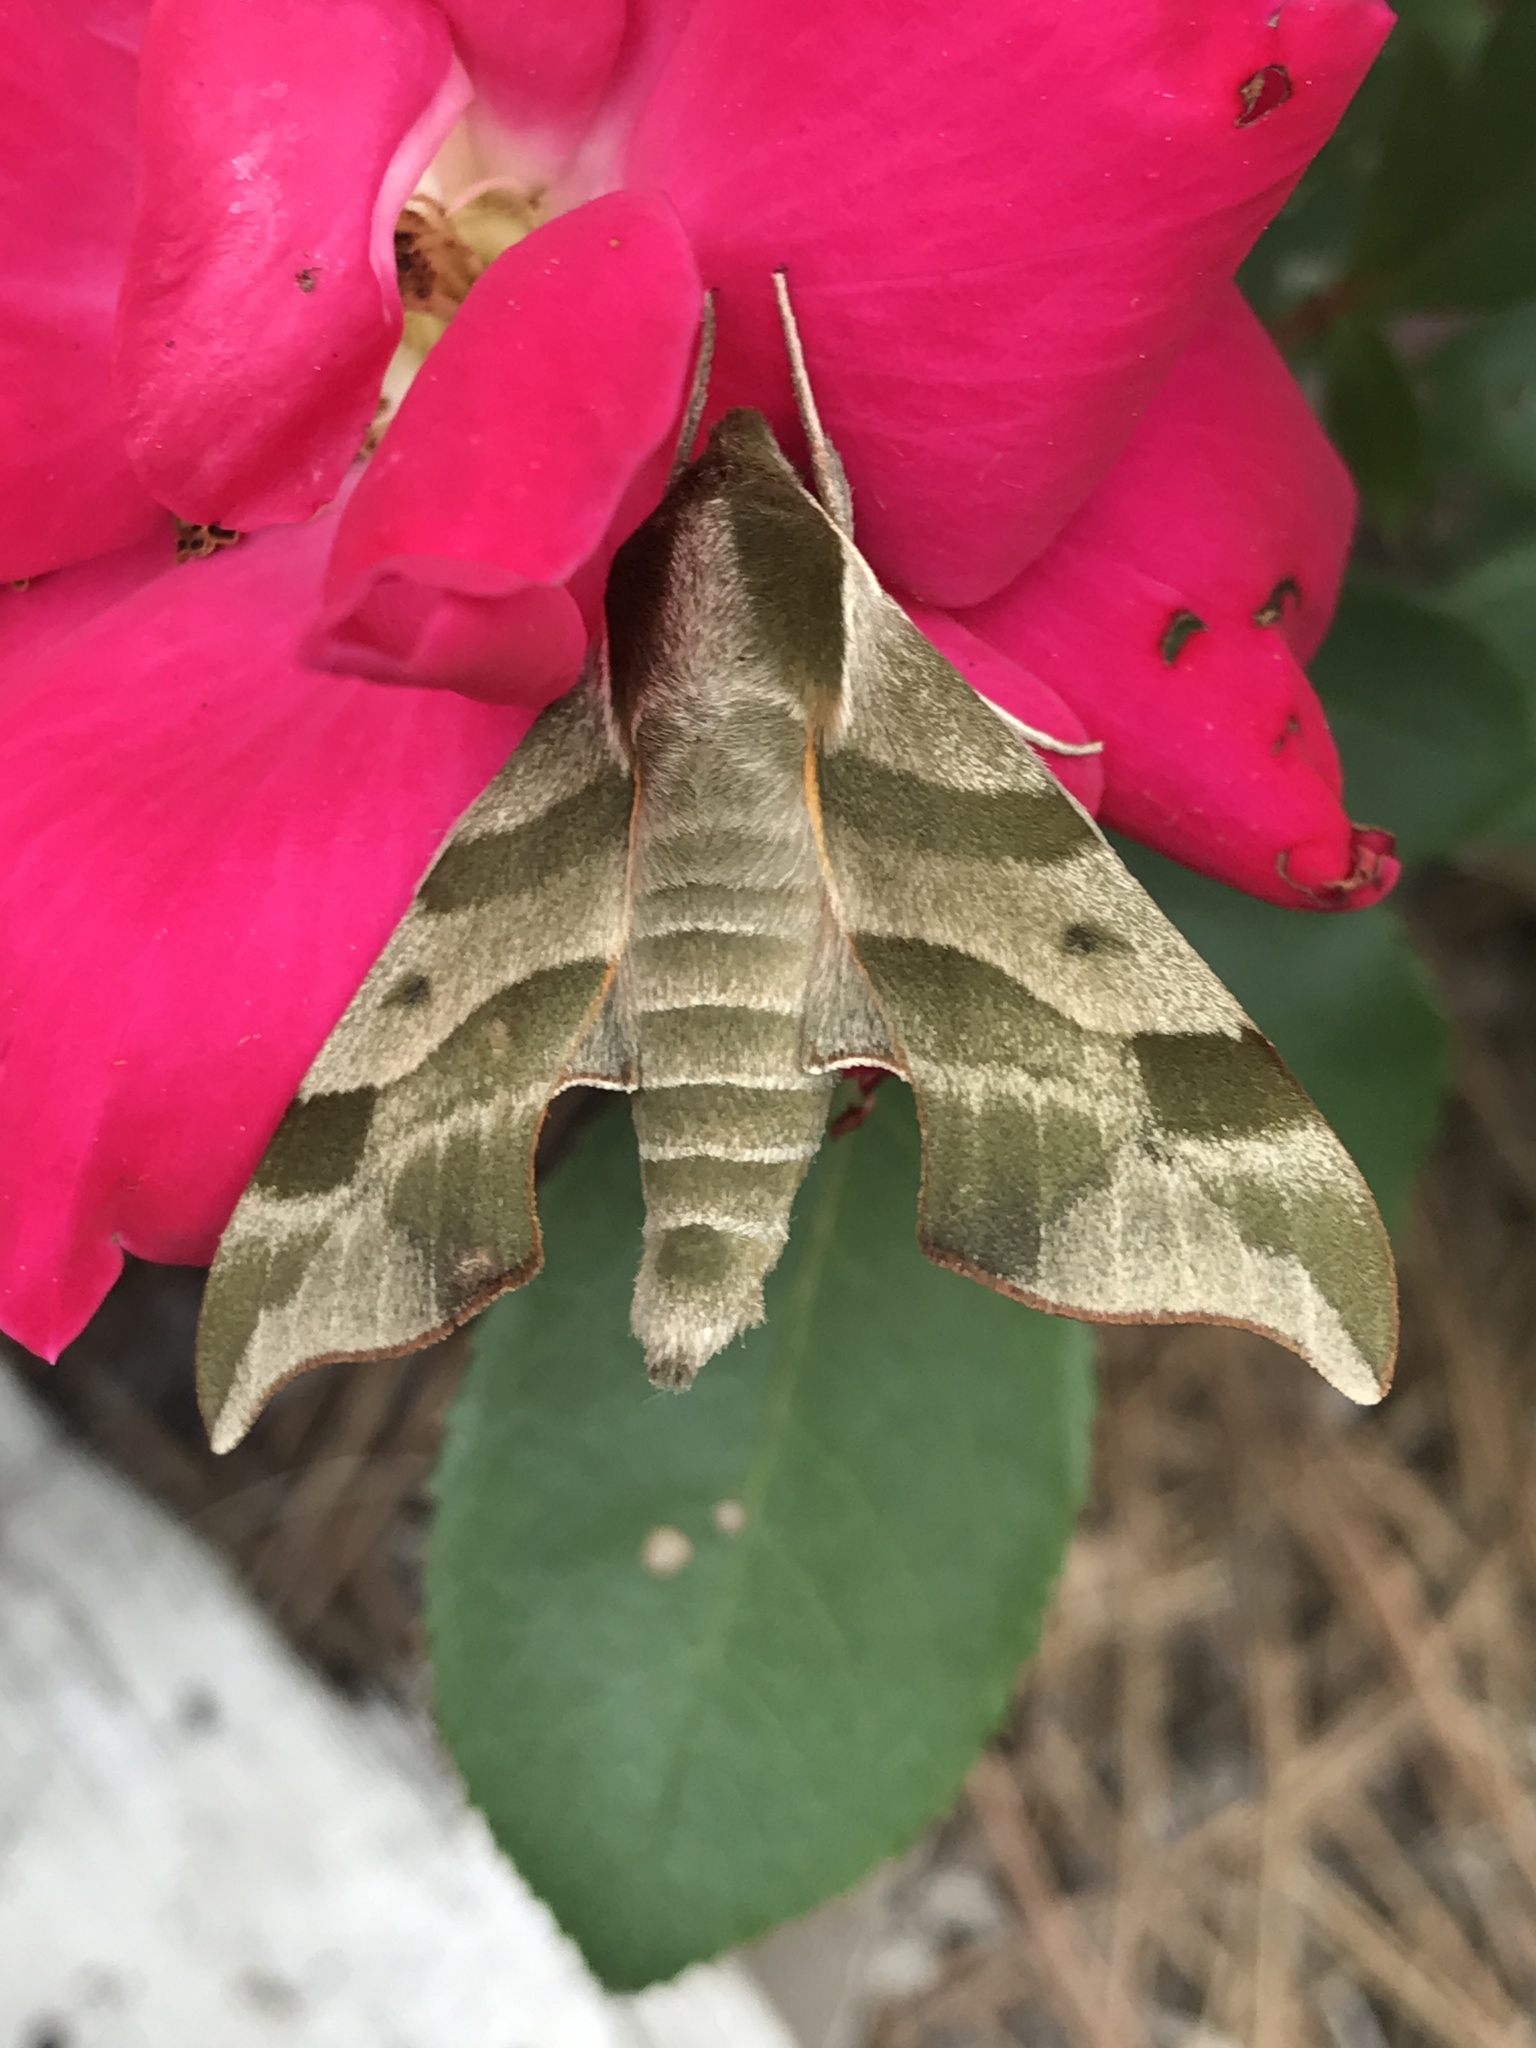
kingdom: Animalia
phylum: Arthropoda
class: Insecta
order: Lepidoptera
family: Sphingidae
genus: Darapsa
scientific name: Darapsa myron
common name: Hog sphinx
